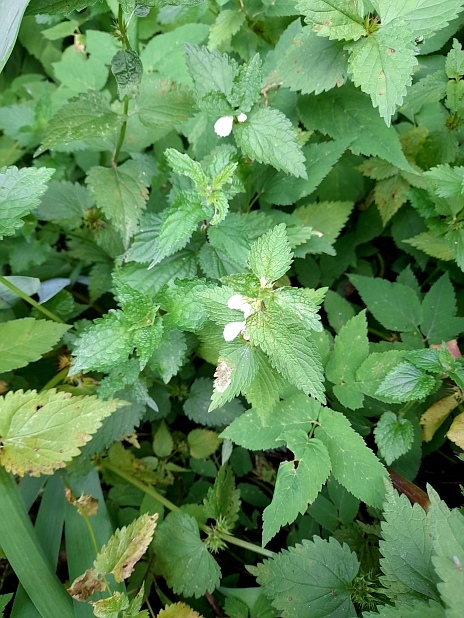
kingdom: Plantae
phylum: Tracheophyta
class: Magnoliopsida
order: Lamiales
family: Lamiaceae
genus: Lamium
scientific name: Lamium album
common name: White dead-nettle
